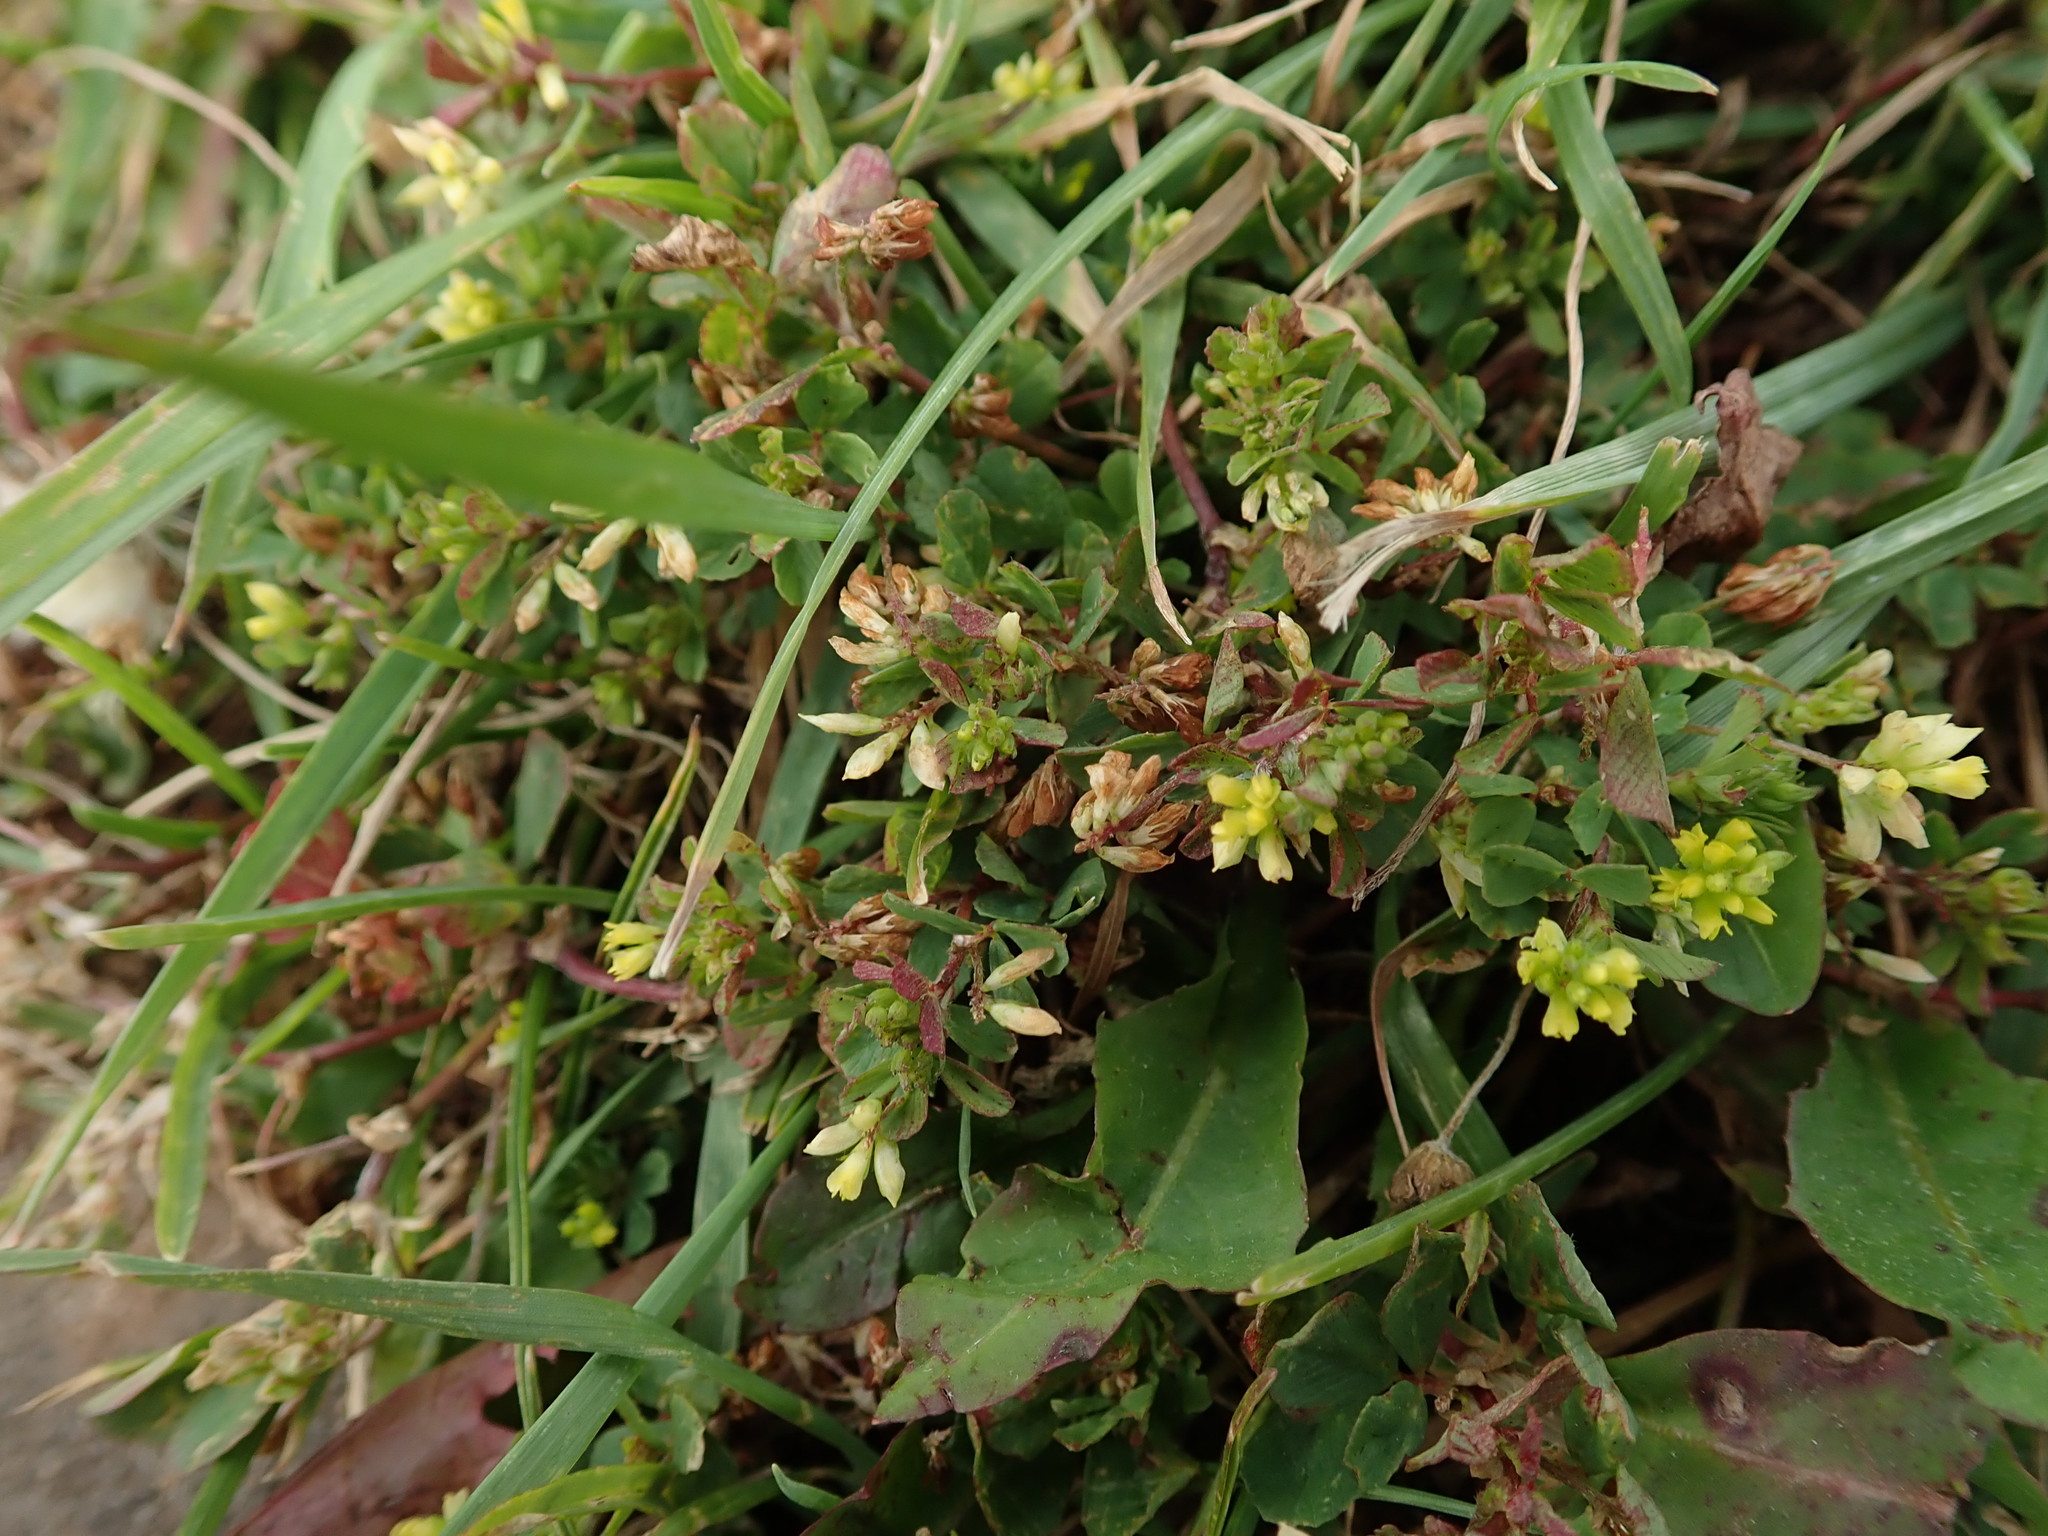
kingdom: Plantae
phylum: Tracheophyta
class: Magnoliopsida
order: Fabales
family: Fabaceae
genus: Trifolium
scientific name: Trifolium dubium
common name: Suckling clover
